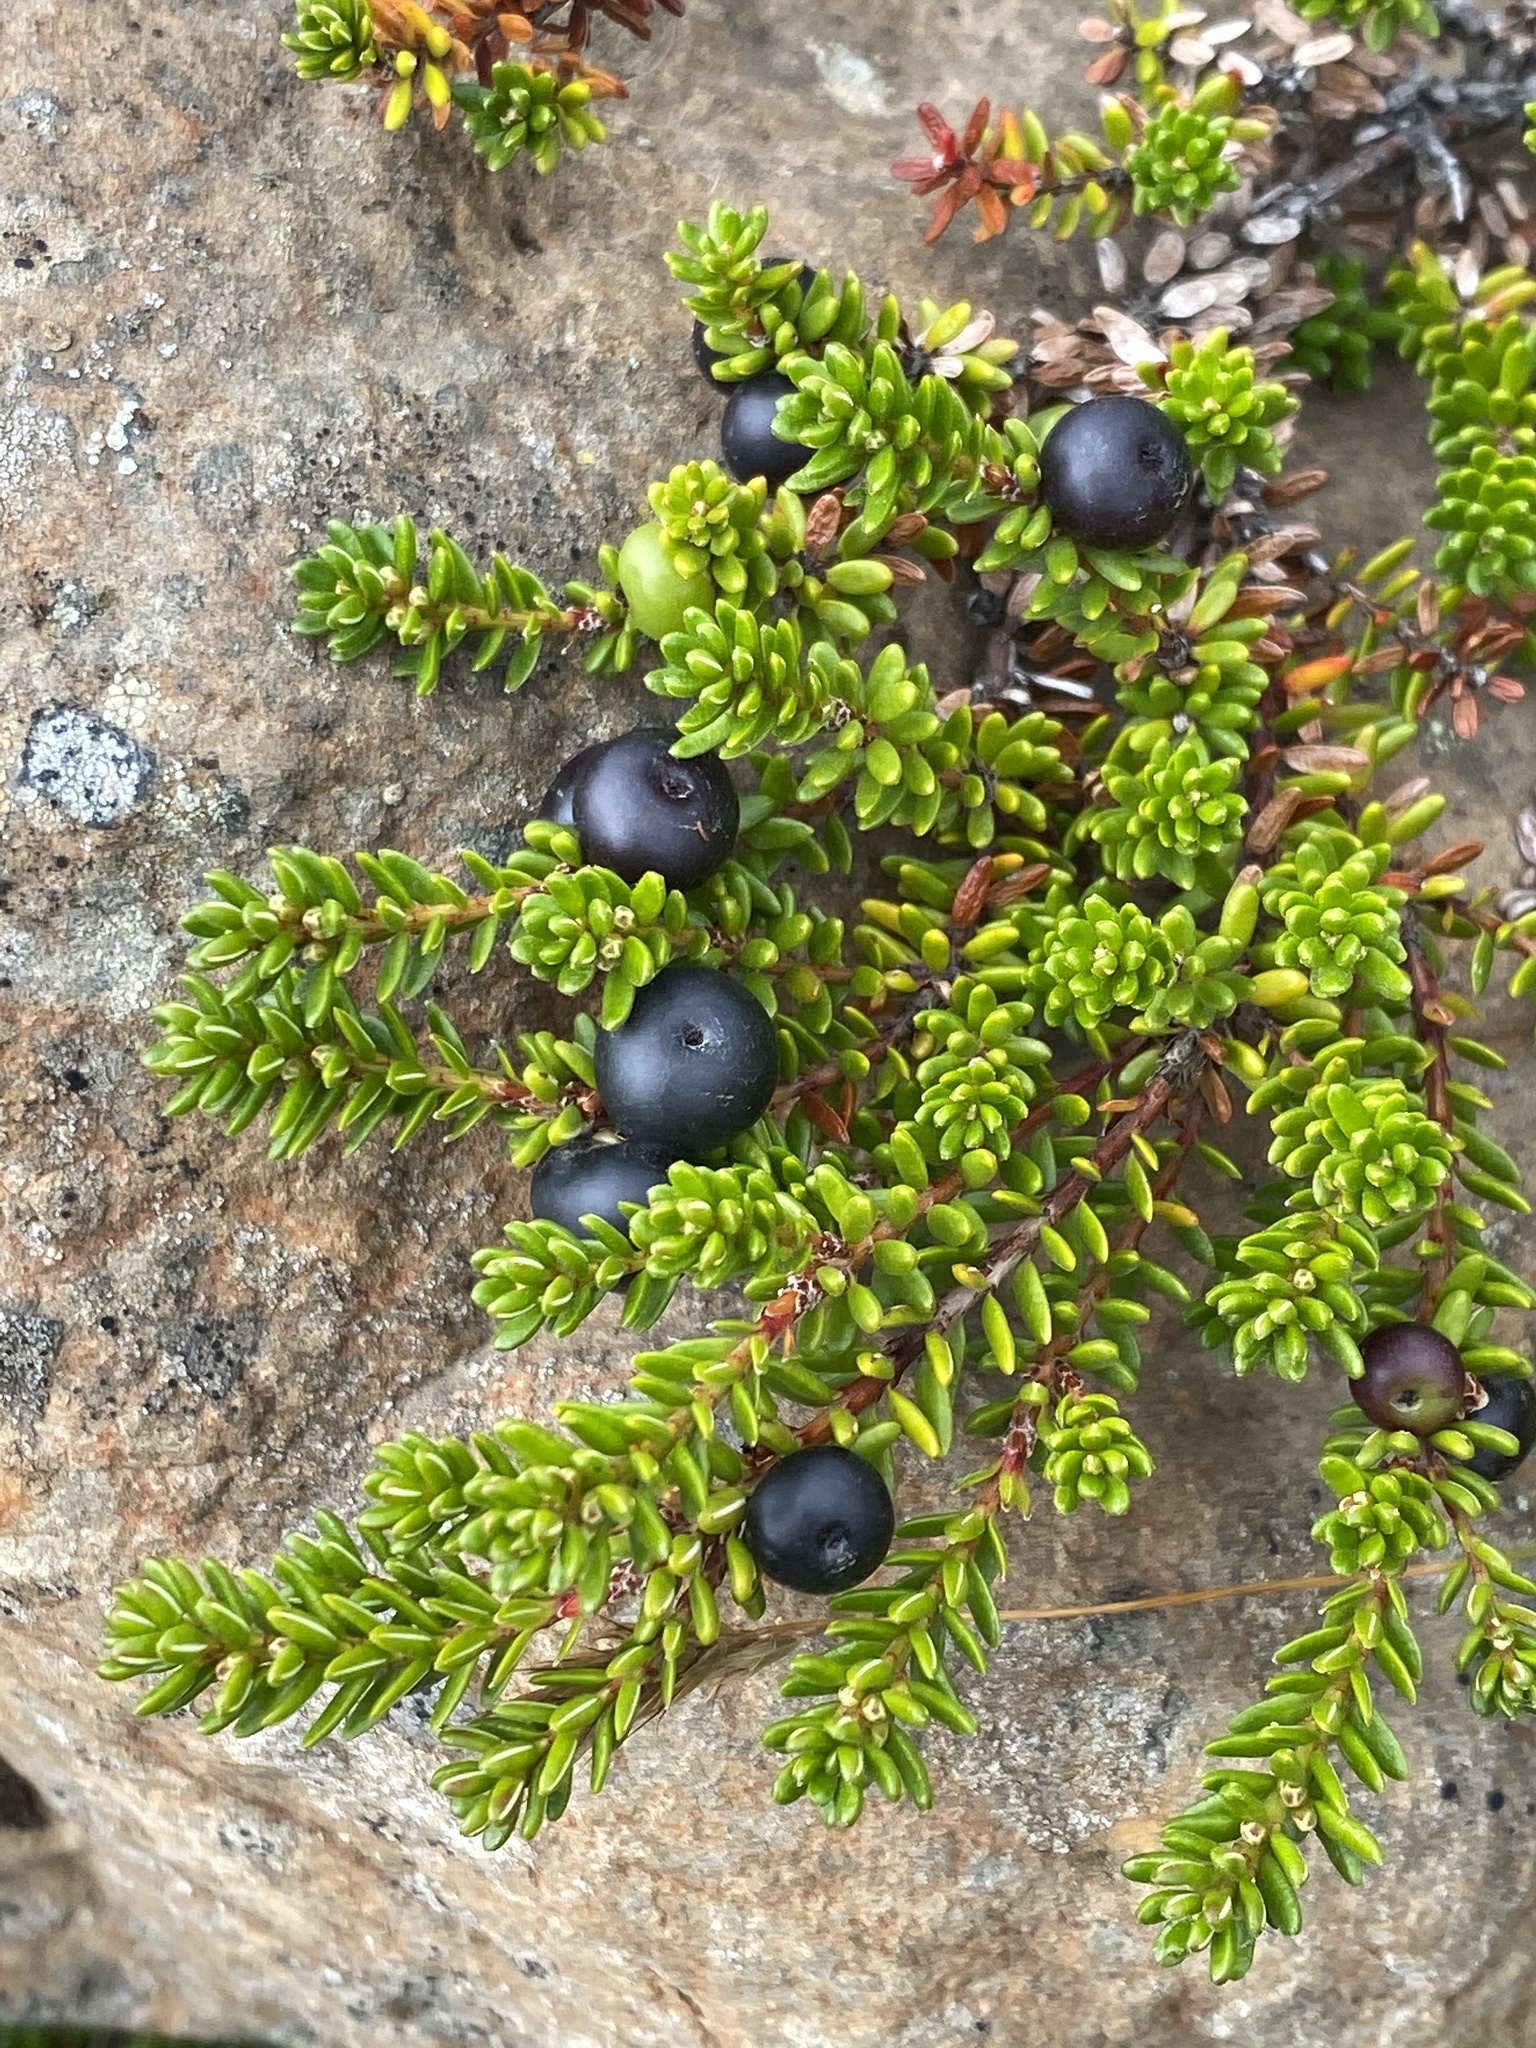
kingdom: Plantae
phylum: Tracheophyta
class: Magnoliopsida
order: Ericales
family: Ericaceae
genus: Empetrum
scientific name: Empetrum nigrum
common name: Black crowberry
